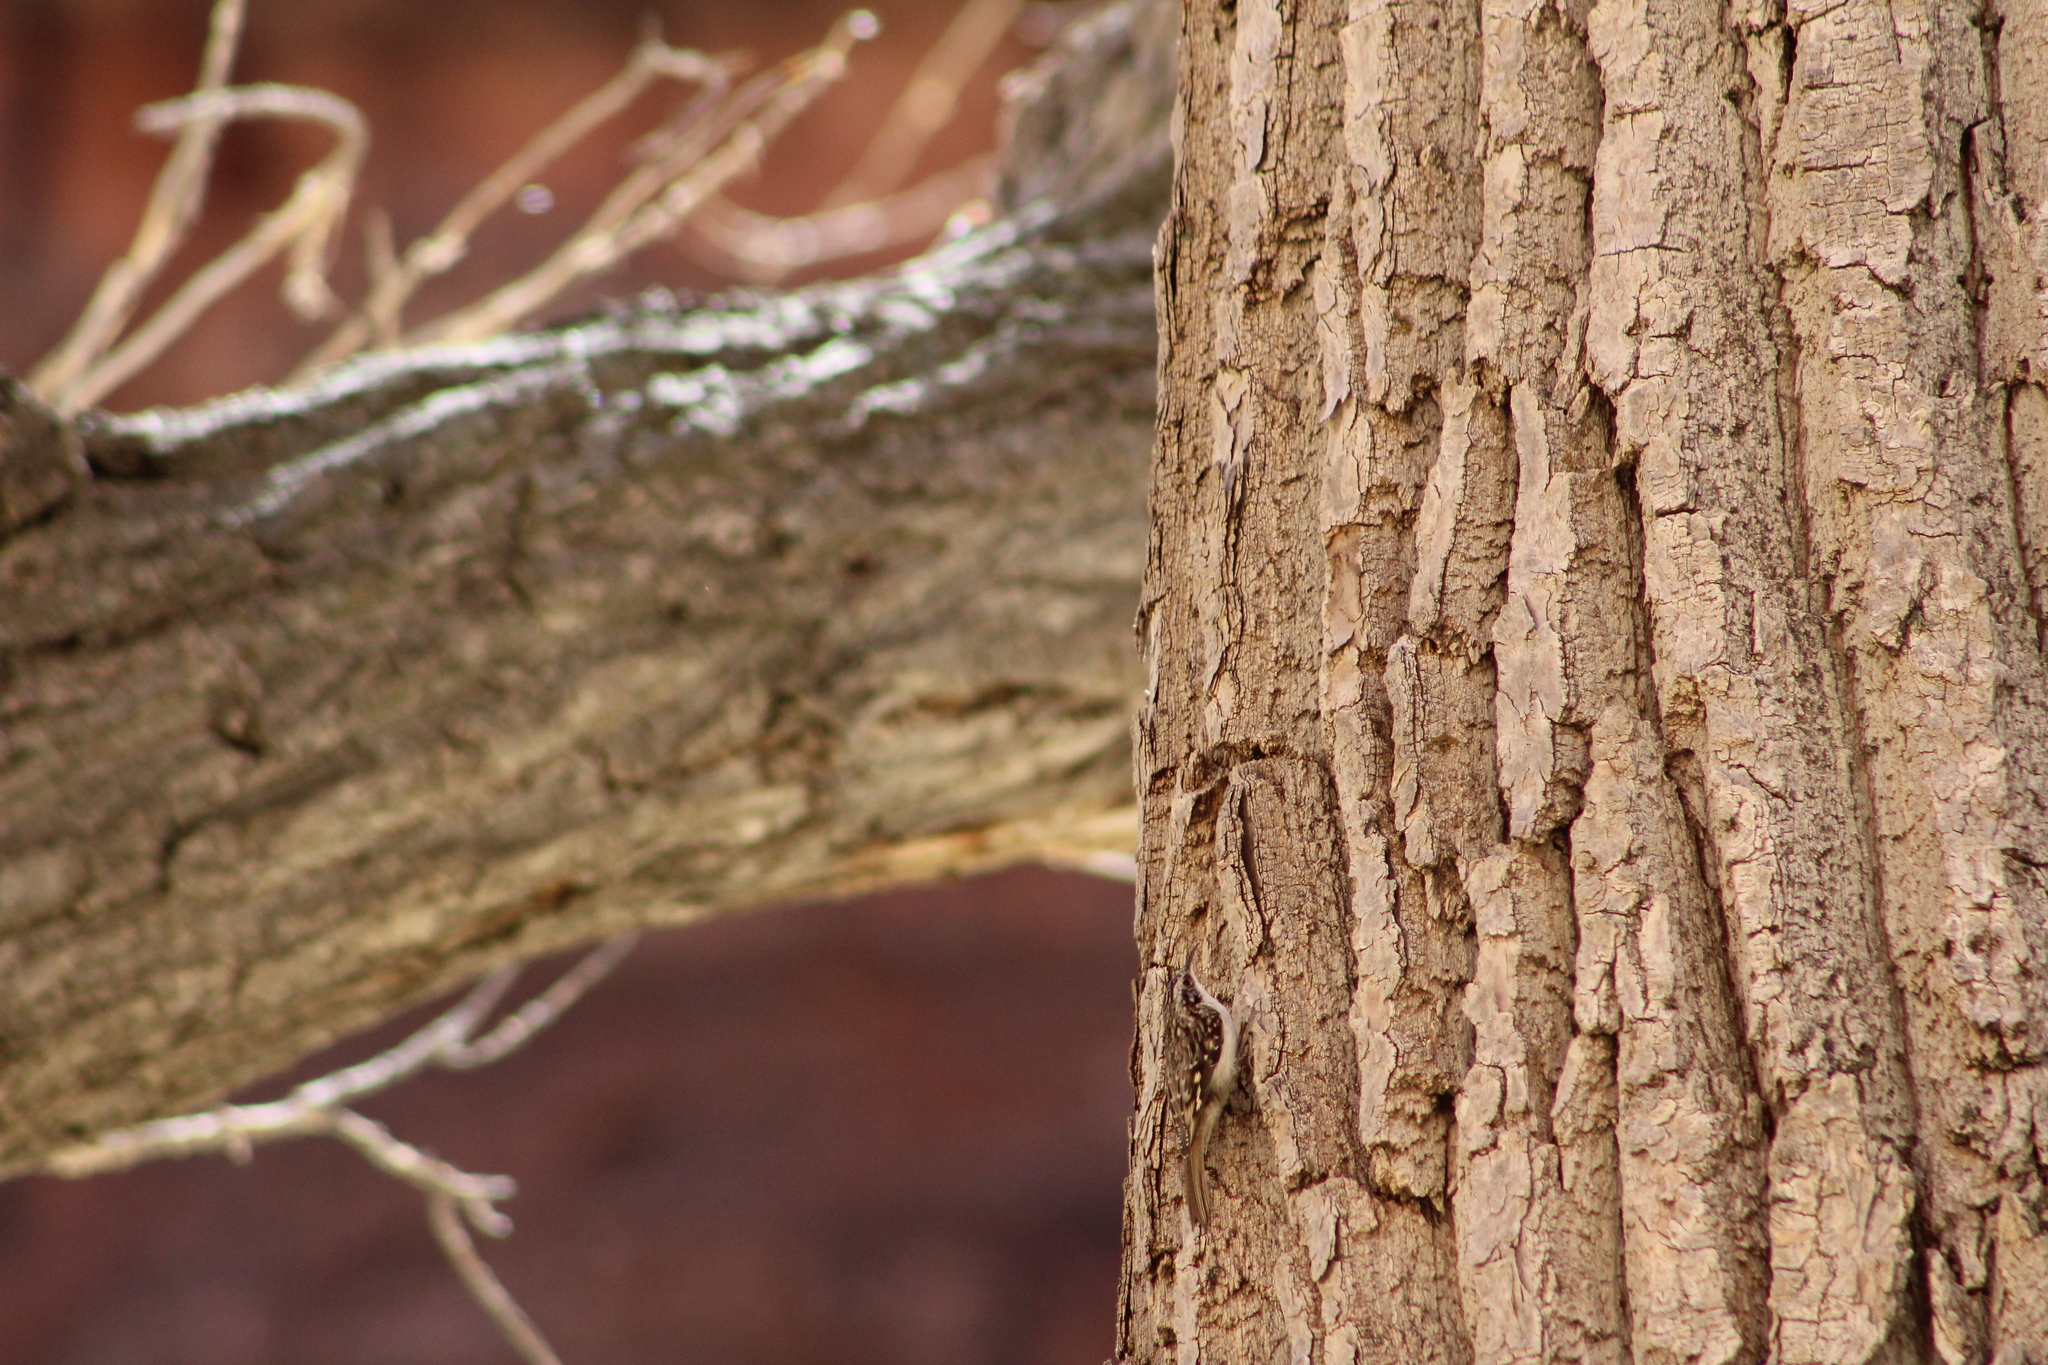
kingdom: Animalia
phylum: Chordata
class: Aves
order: Passeriformes
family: Certhiidae
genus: Certhia
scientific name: Certhia americana
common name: Brown creeper
